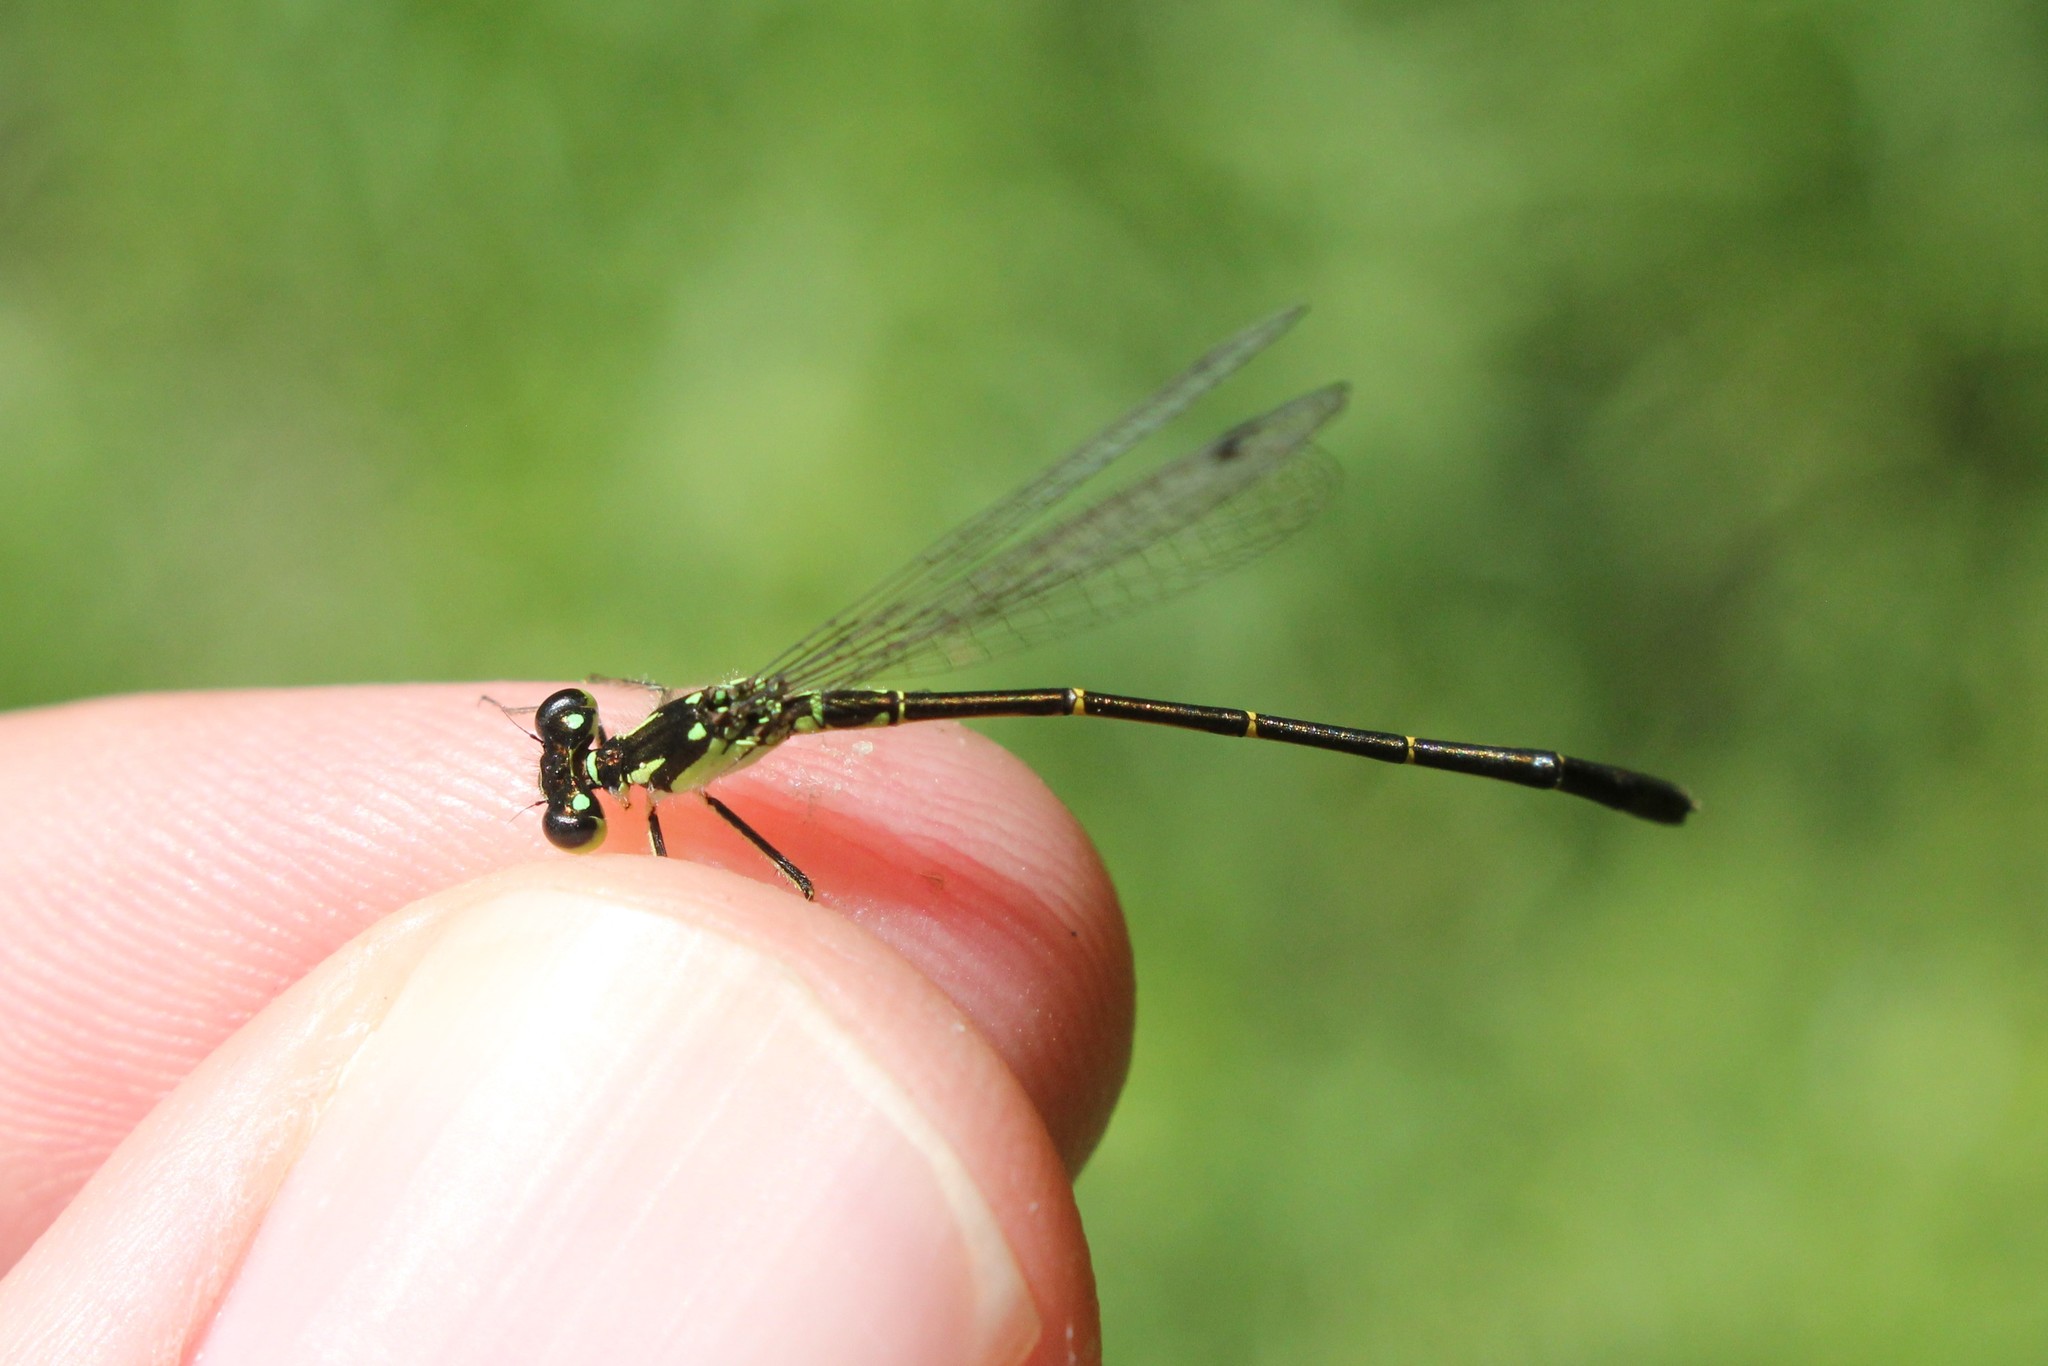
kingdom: Animalia
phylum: Arthropoda
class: Insecta
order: Odonata
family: Coenagrionidae
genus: Ischnura
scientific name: Ischnura posita
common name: Fragile forktail
